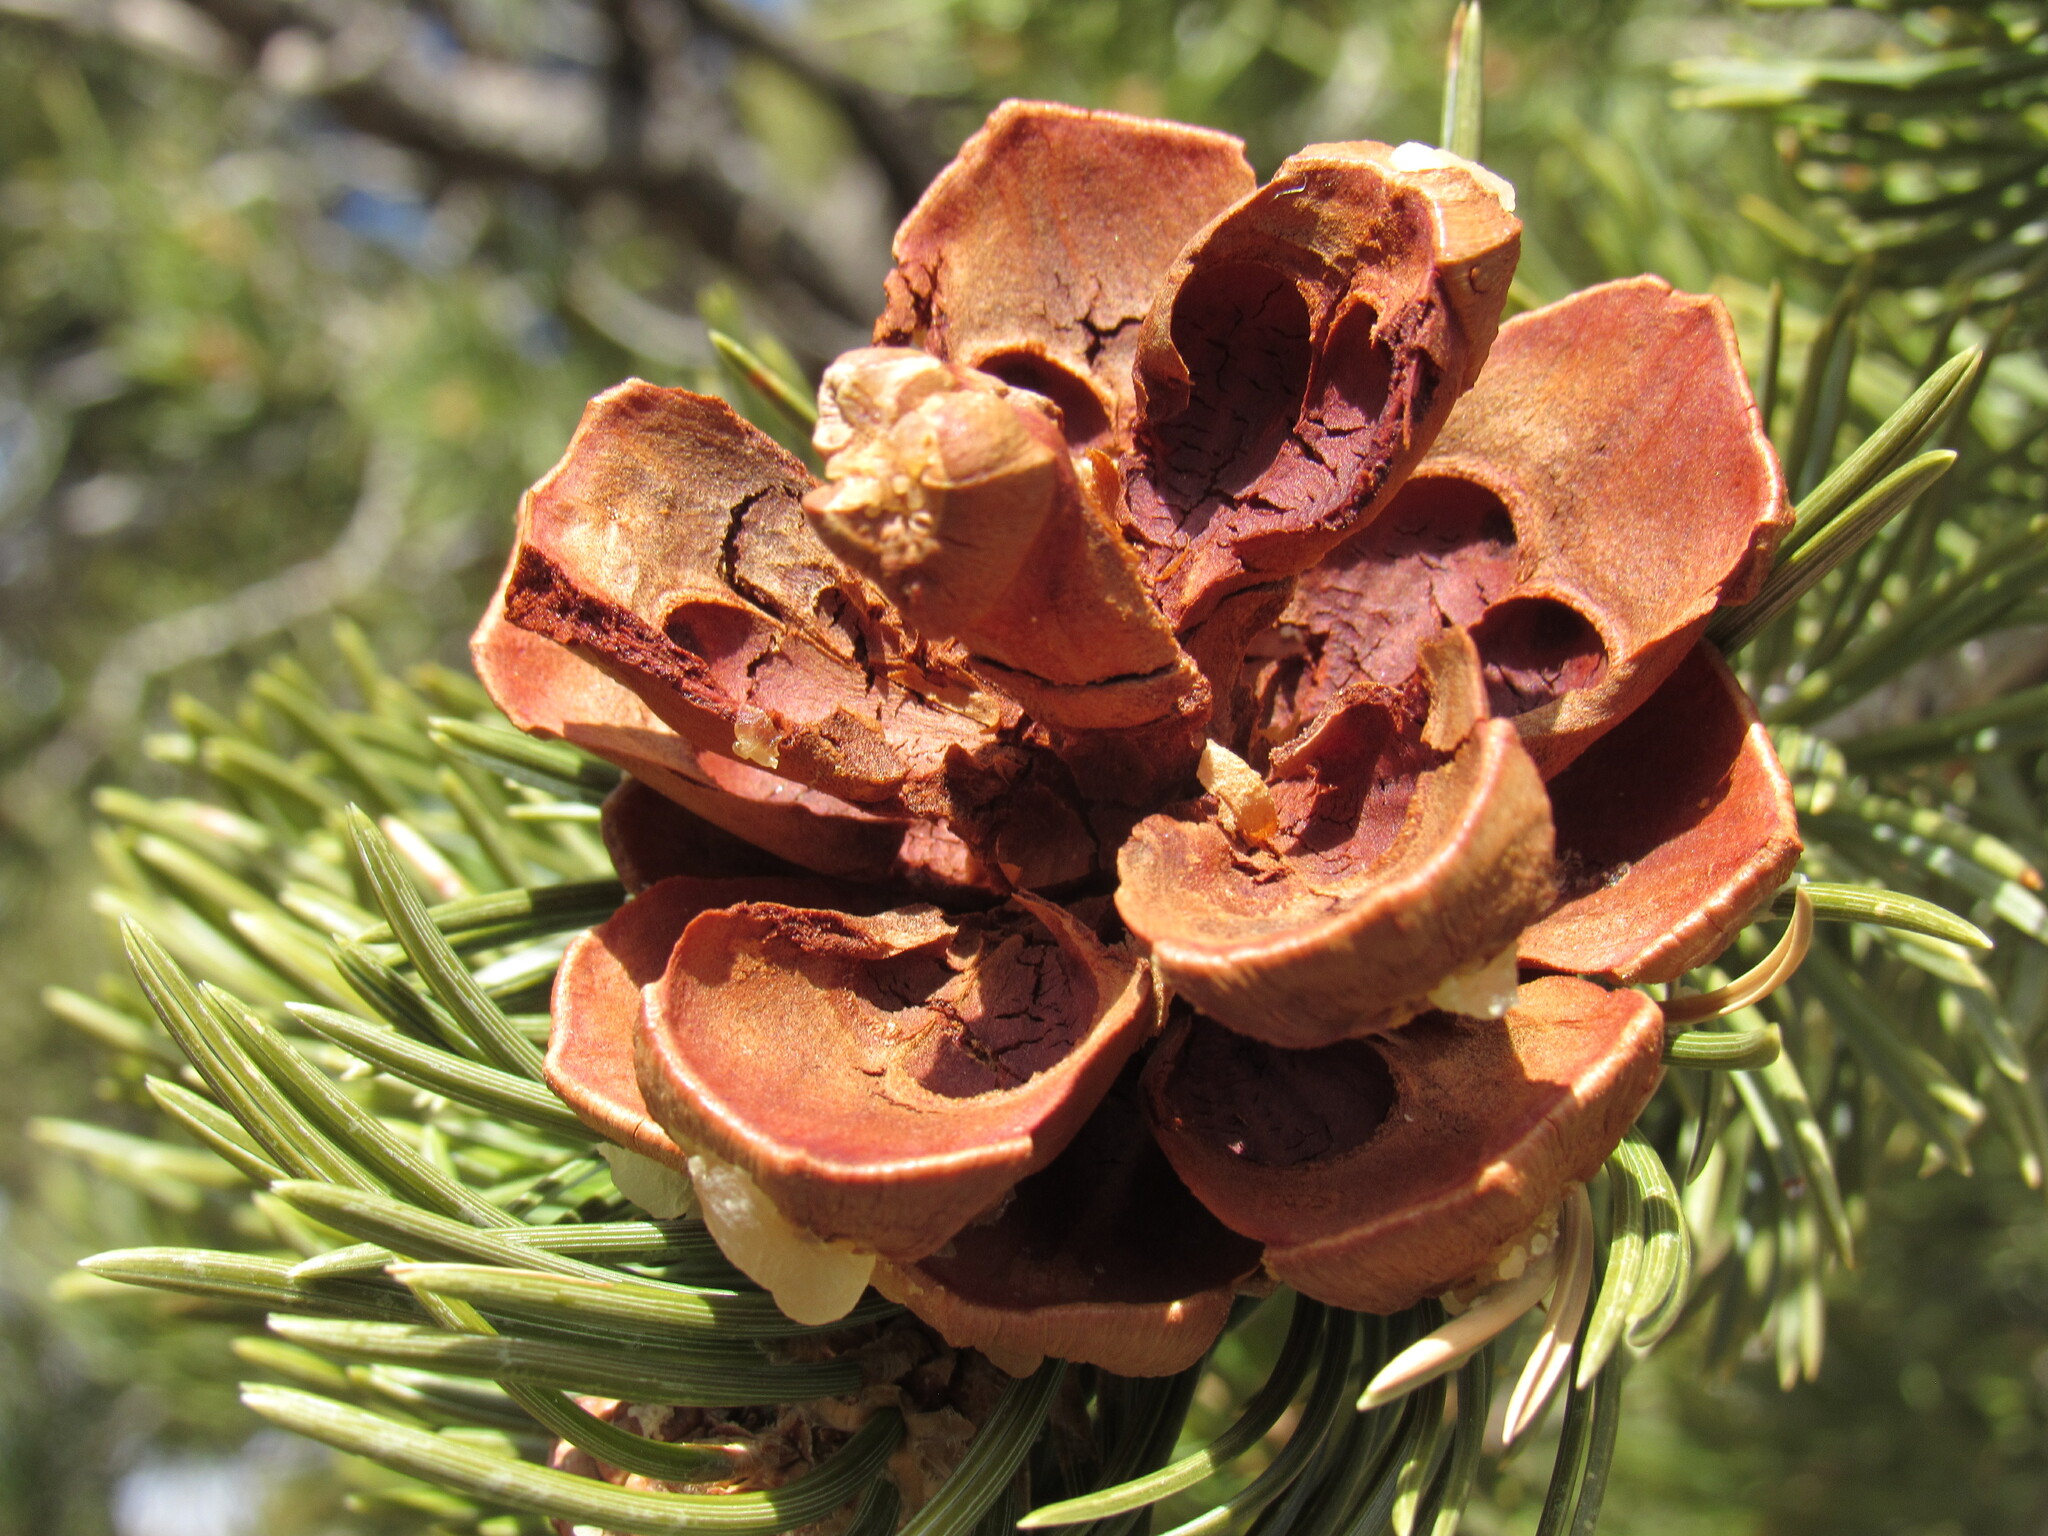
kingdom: Plantae
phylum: Tracheophyta
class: Pinopsida
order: Pinales
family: Pinaceae
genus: Pinus
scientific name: Pinus edulis
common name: Colorado pinyon
